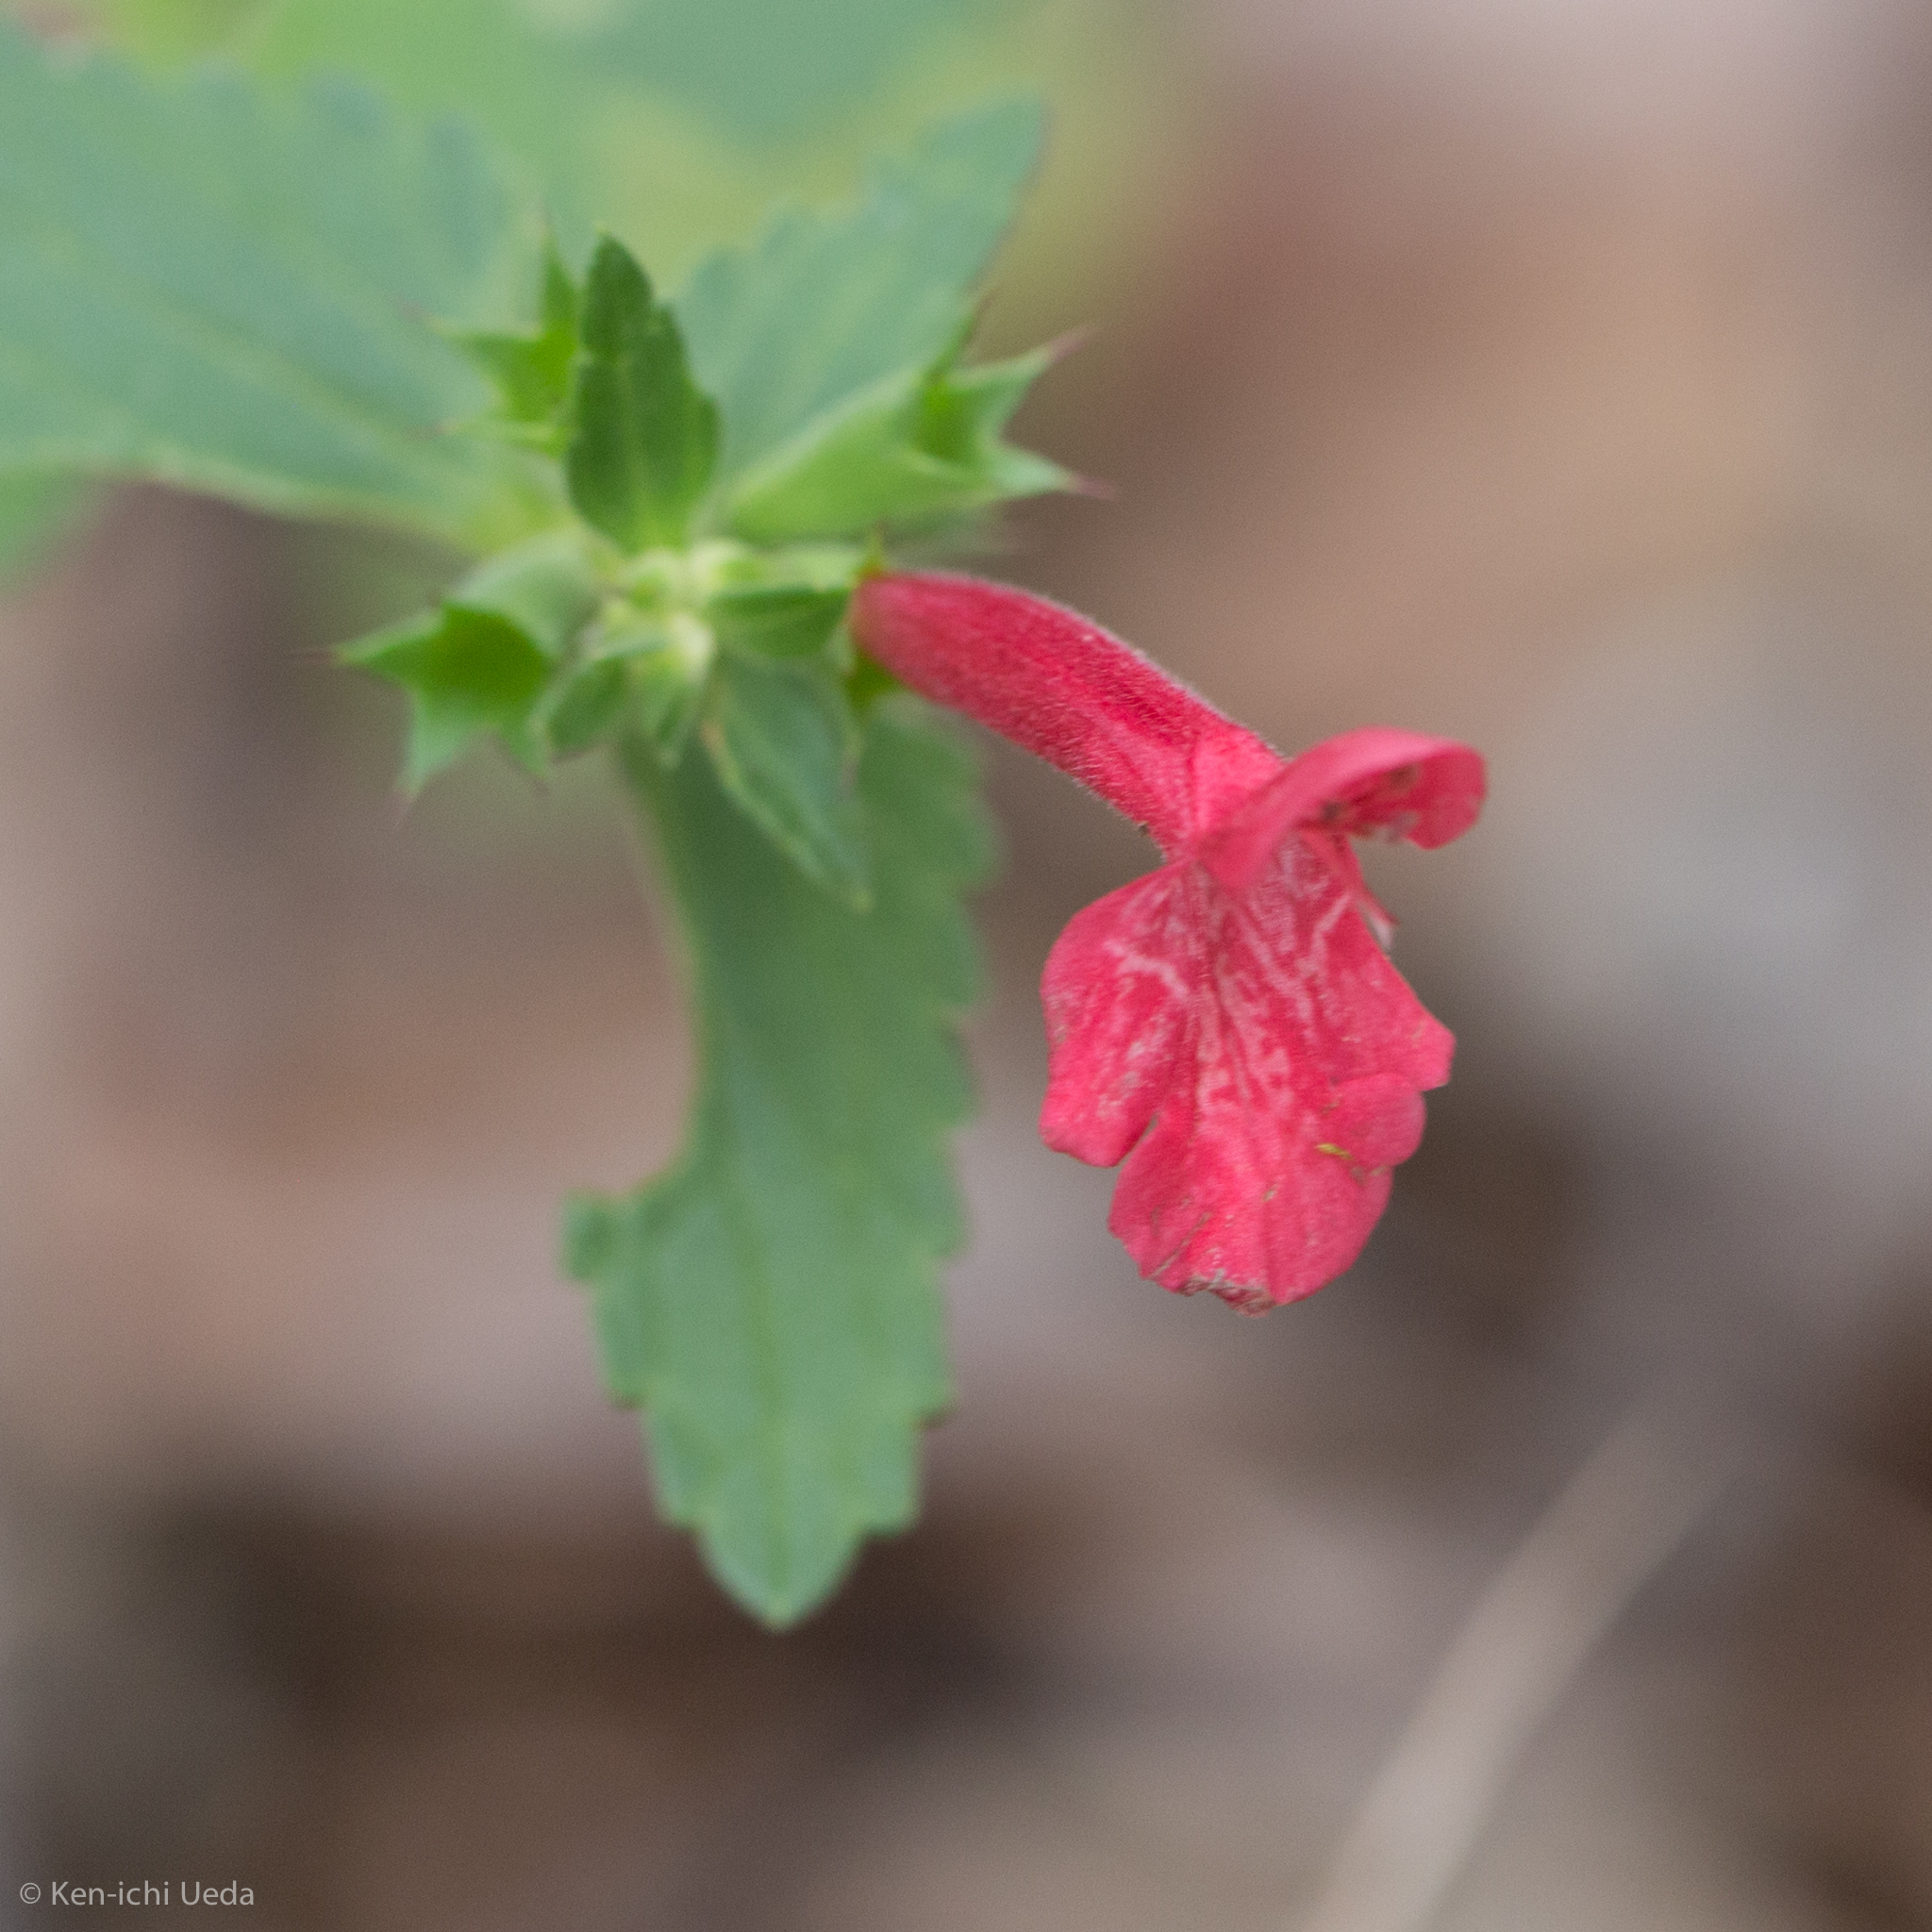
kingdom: Plantae
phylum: Tracheophyta
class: Magnoliopsida
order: Lamiales
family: Lamiaceae
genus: Stachys
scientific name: Stachys coccinea
